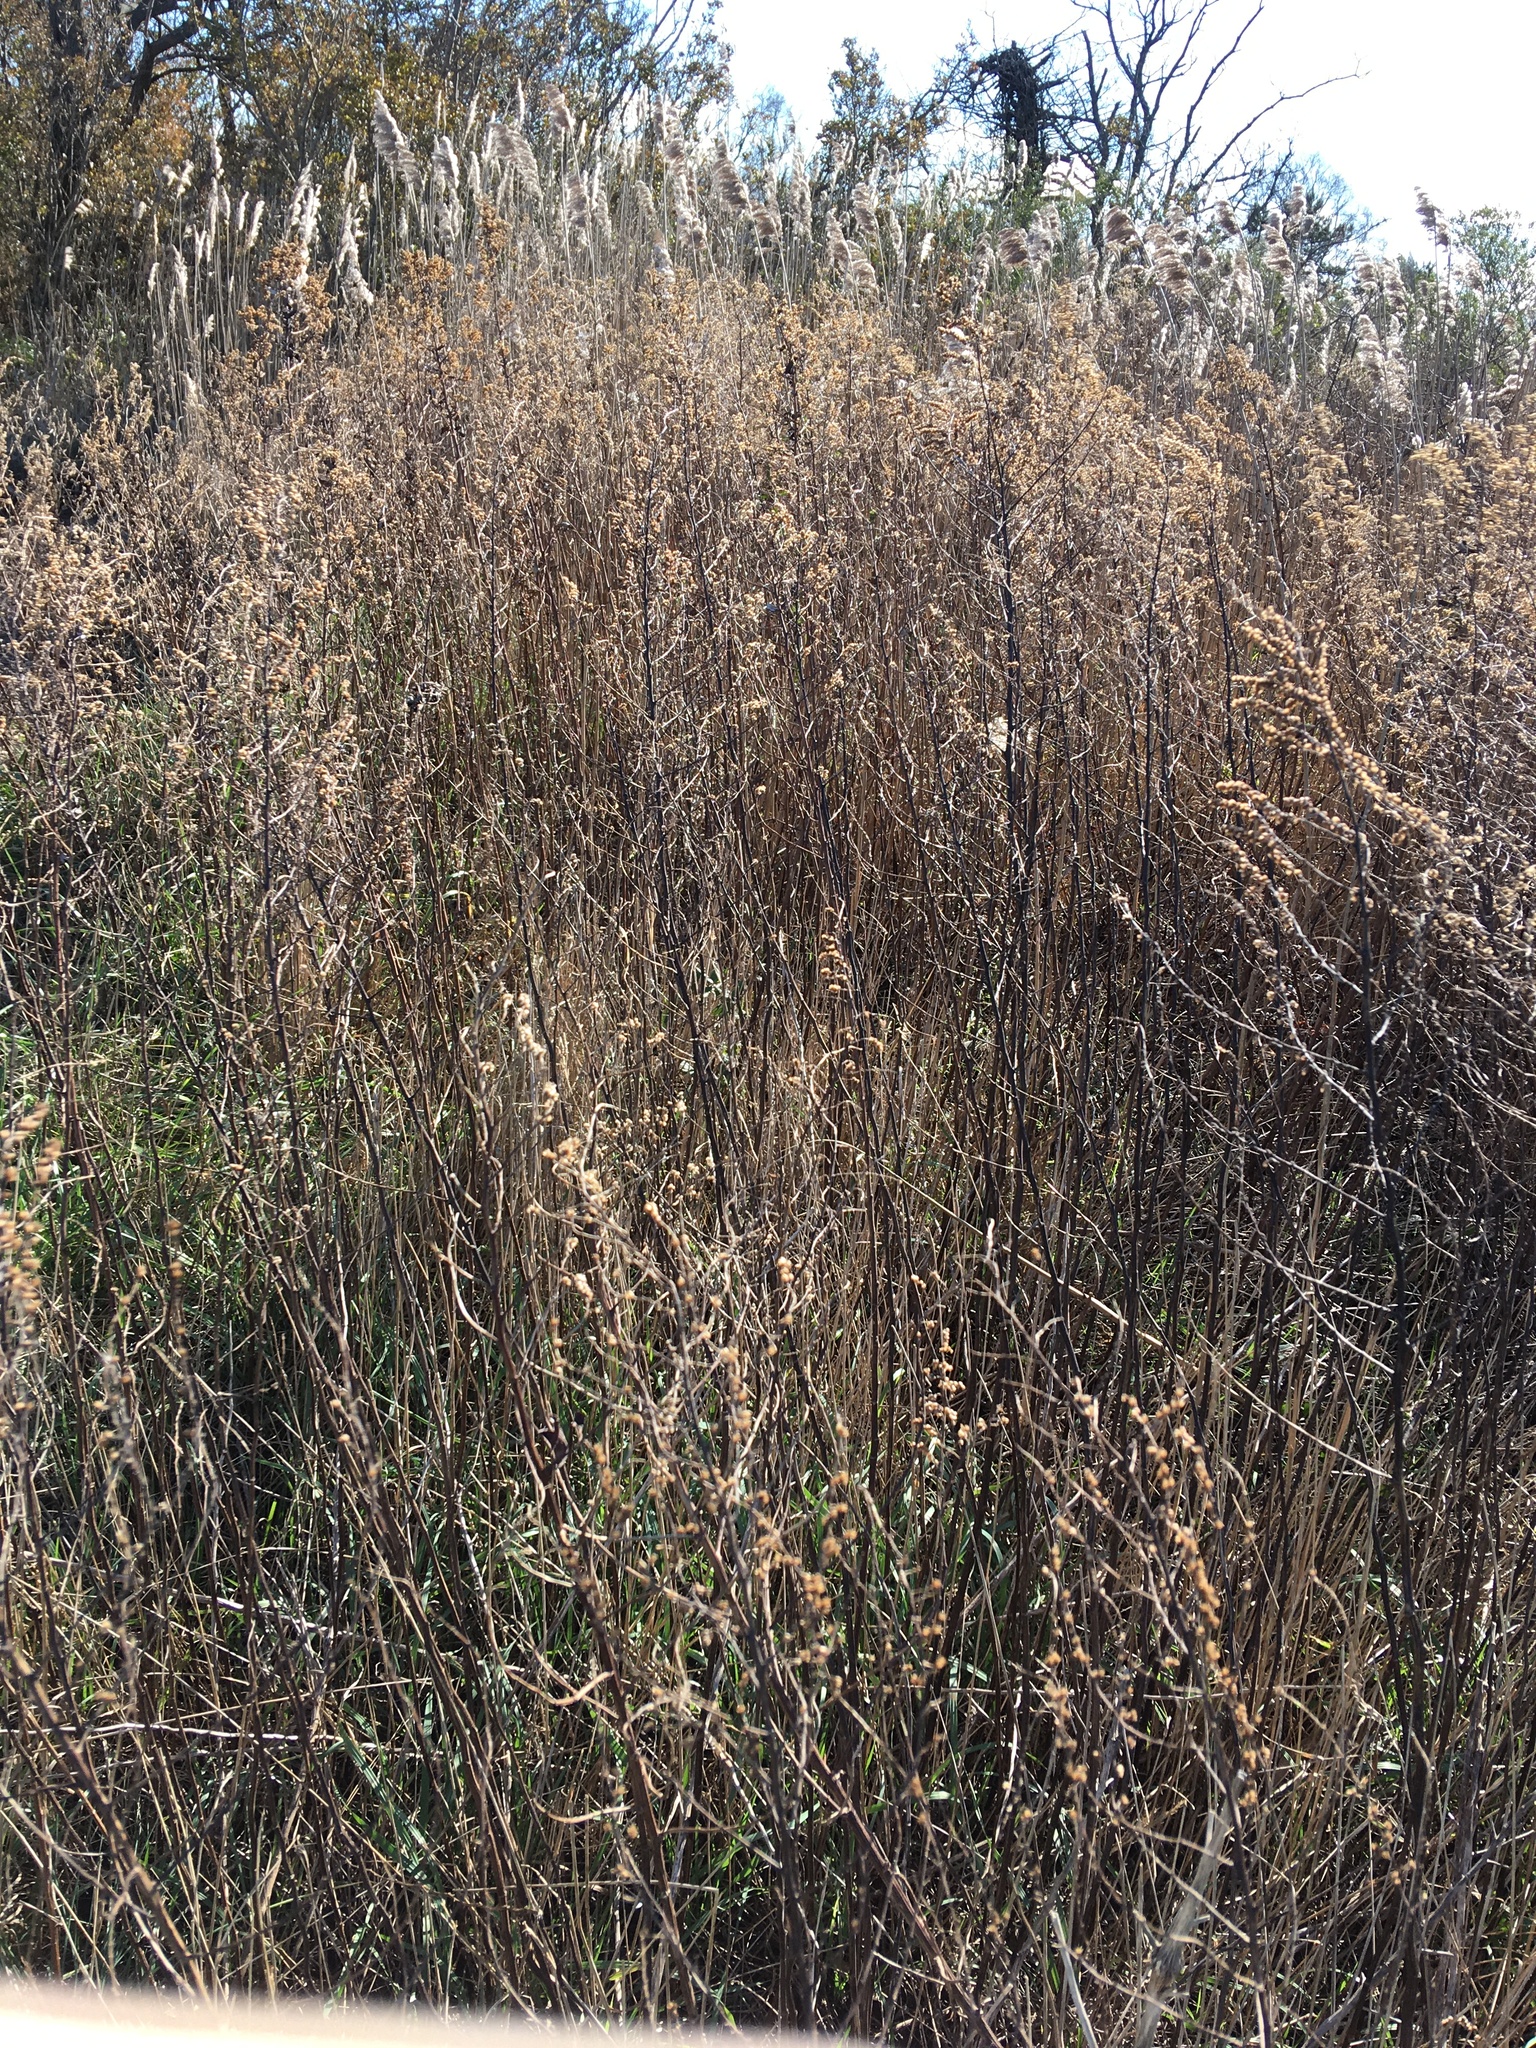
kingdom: Plantae
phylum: Tracheophyta
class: Magnoliopsida
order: Asterales
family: Asteraceae
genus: Artemisia
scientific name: Artemisia vulgaris
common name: Mugwort
